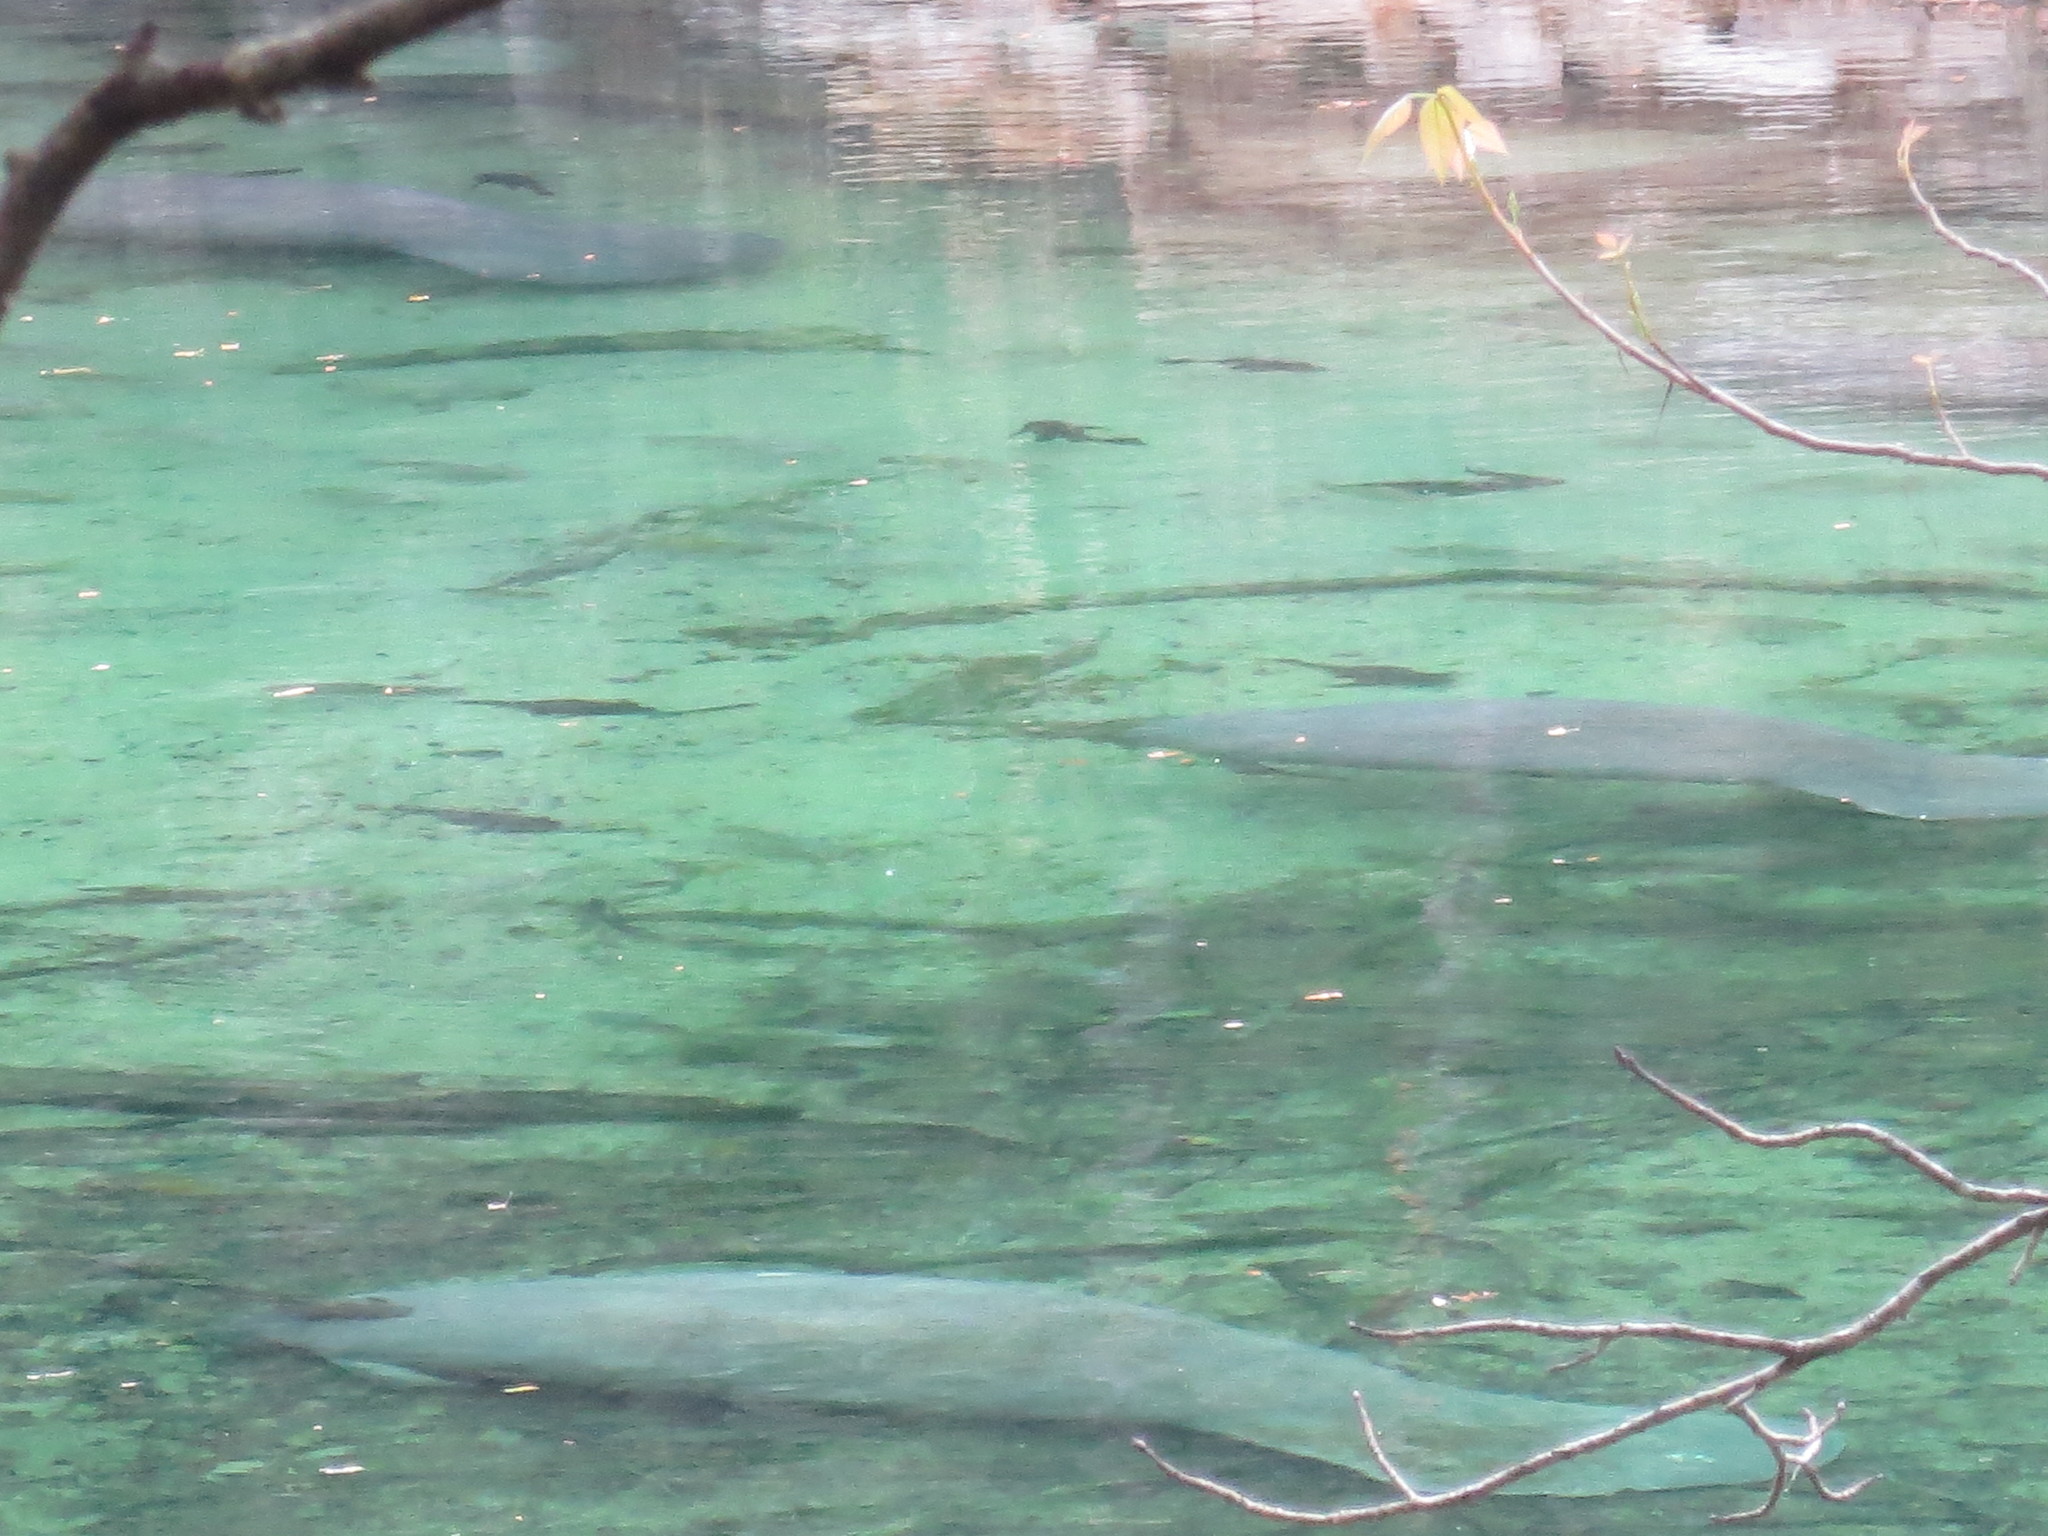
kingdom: Animalia
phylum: Chordata
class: Mammalia
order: Sirenia
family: Trichechidae
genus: Trichechus
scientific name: Trichechus manatus
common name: West indian manatee
